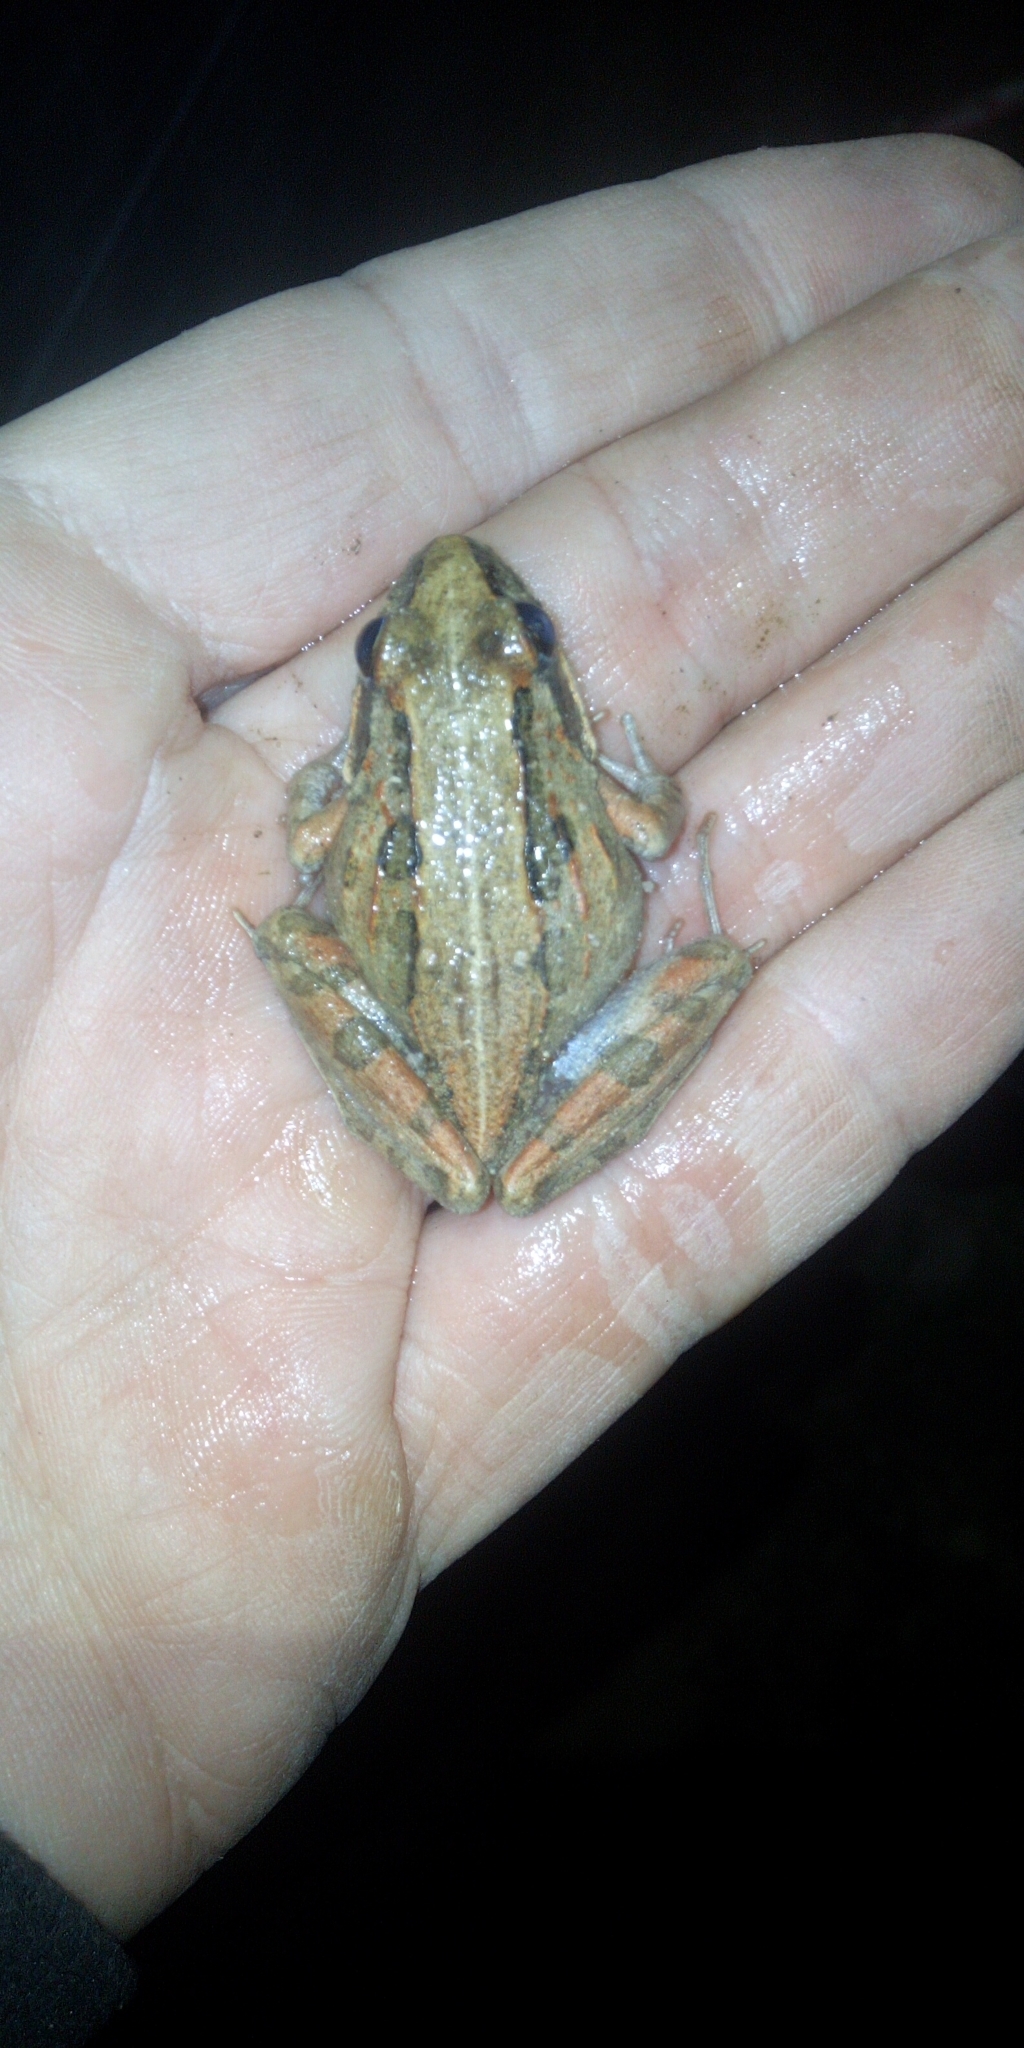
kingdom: Animalia
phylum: Chordata
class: Amphibia
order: Anura
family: Pyxicephalidae
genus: Strongylopus
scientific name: Strongylopus grayii
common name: Gray's stream frog
